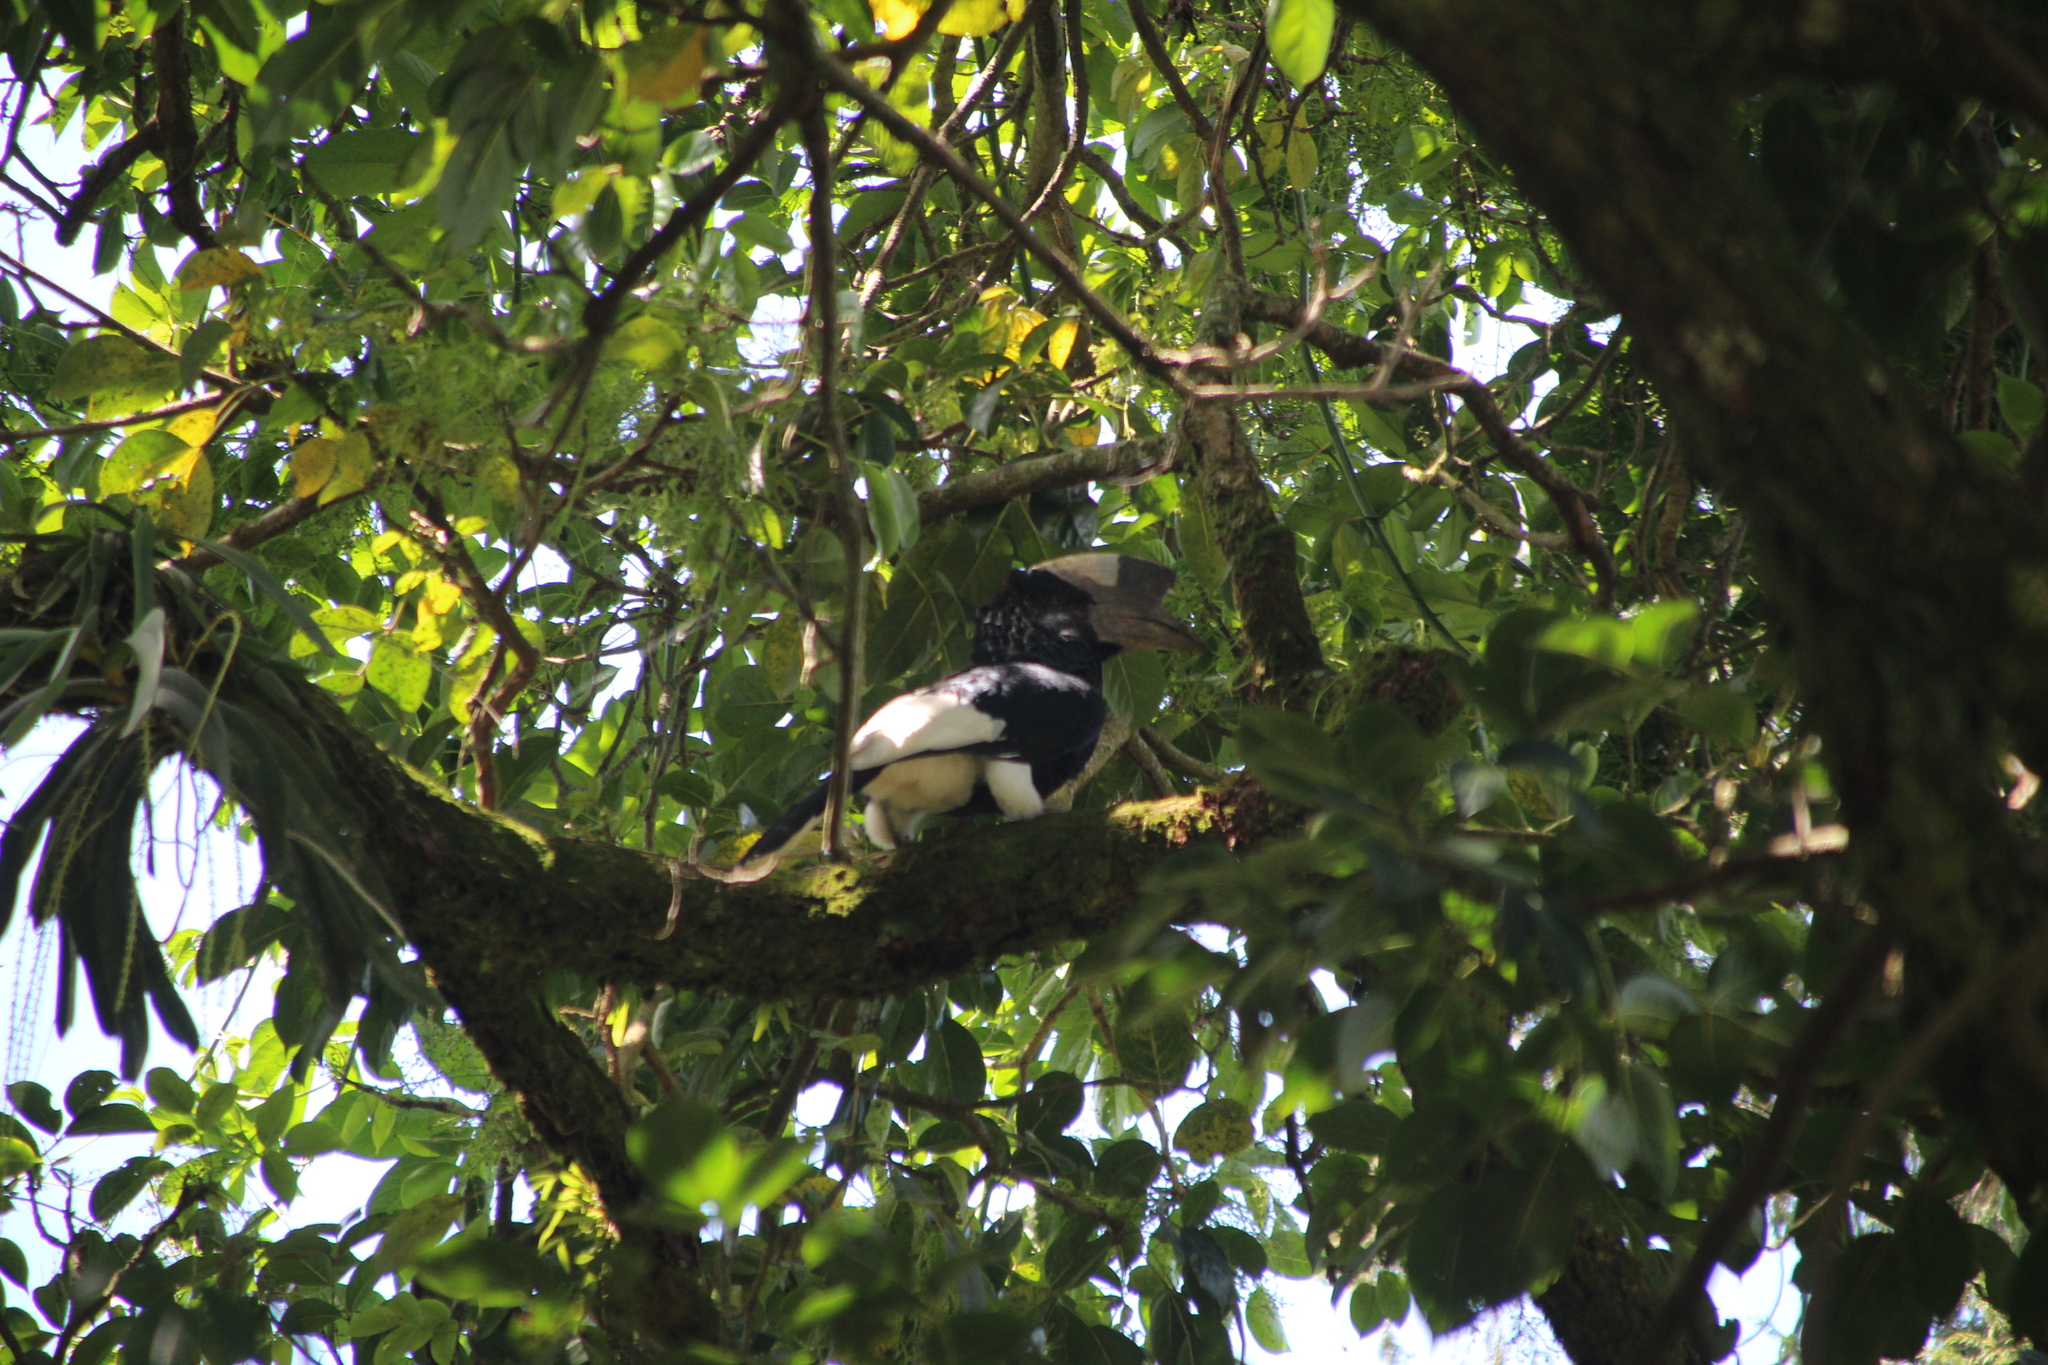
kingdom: Animalia
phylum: Chordata
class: Aves
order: Bucerotiformes
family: Bucerotidae
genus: Bycanistes
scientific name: Bycanistes subcylindricus
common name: Black-and-white-casqued hornbill
